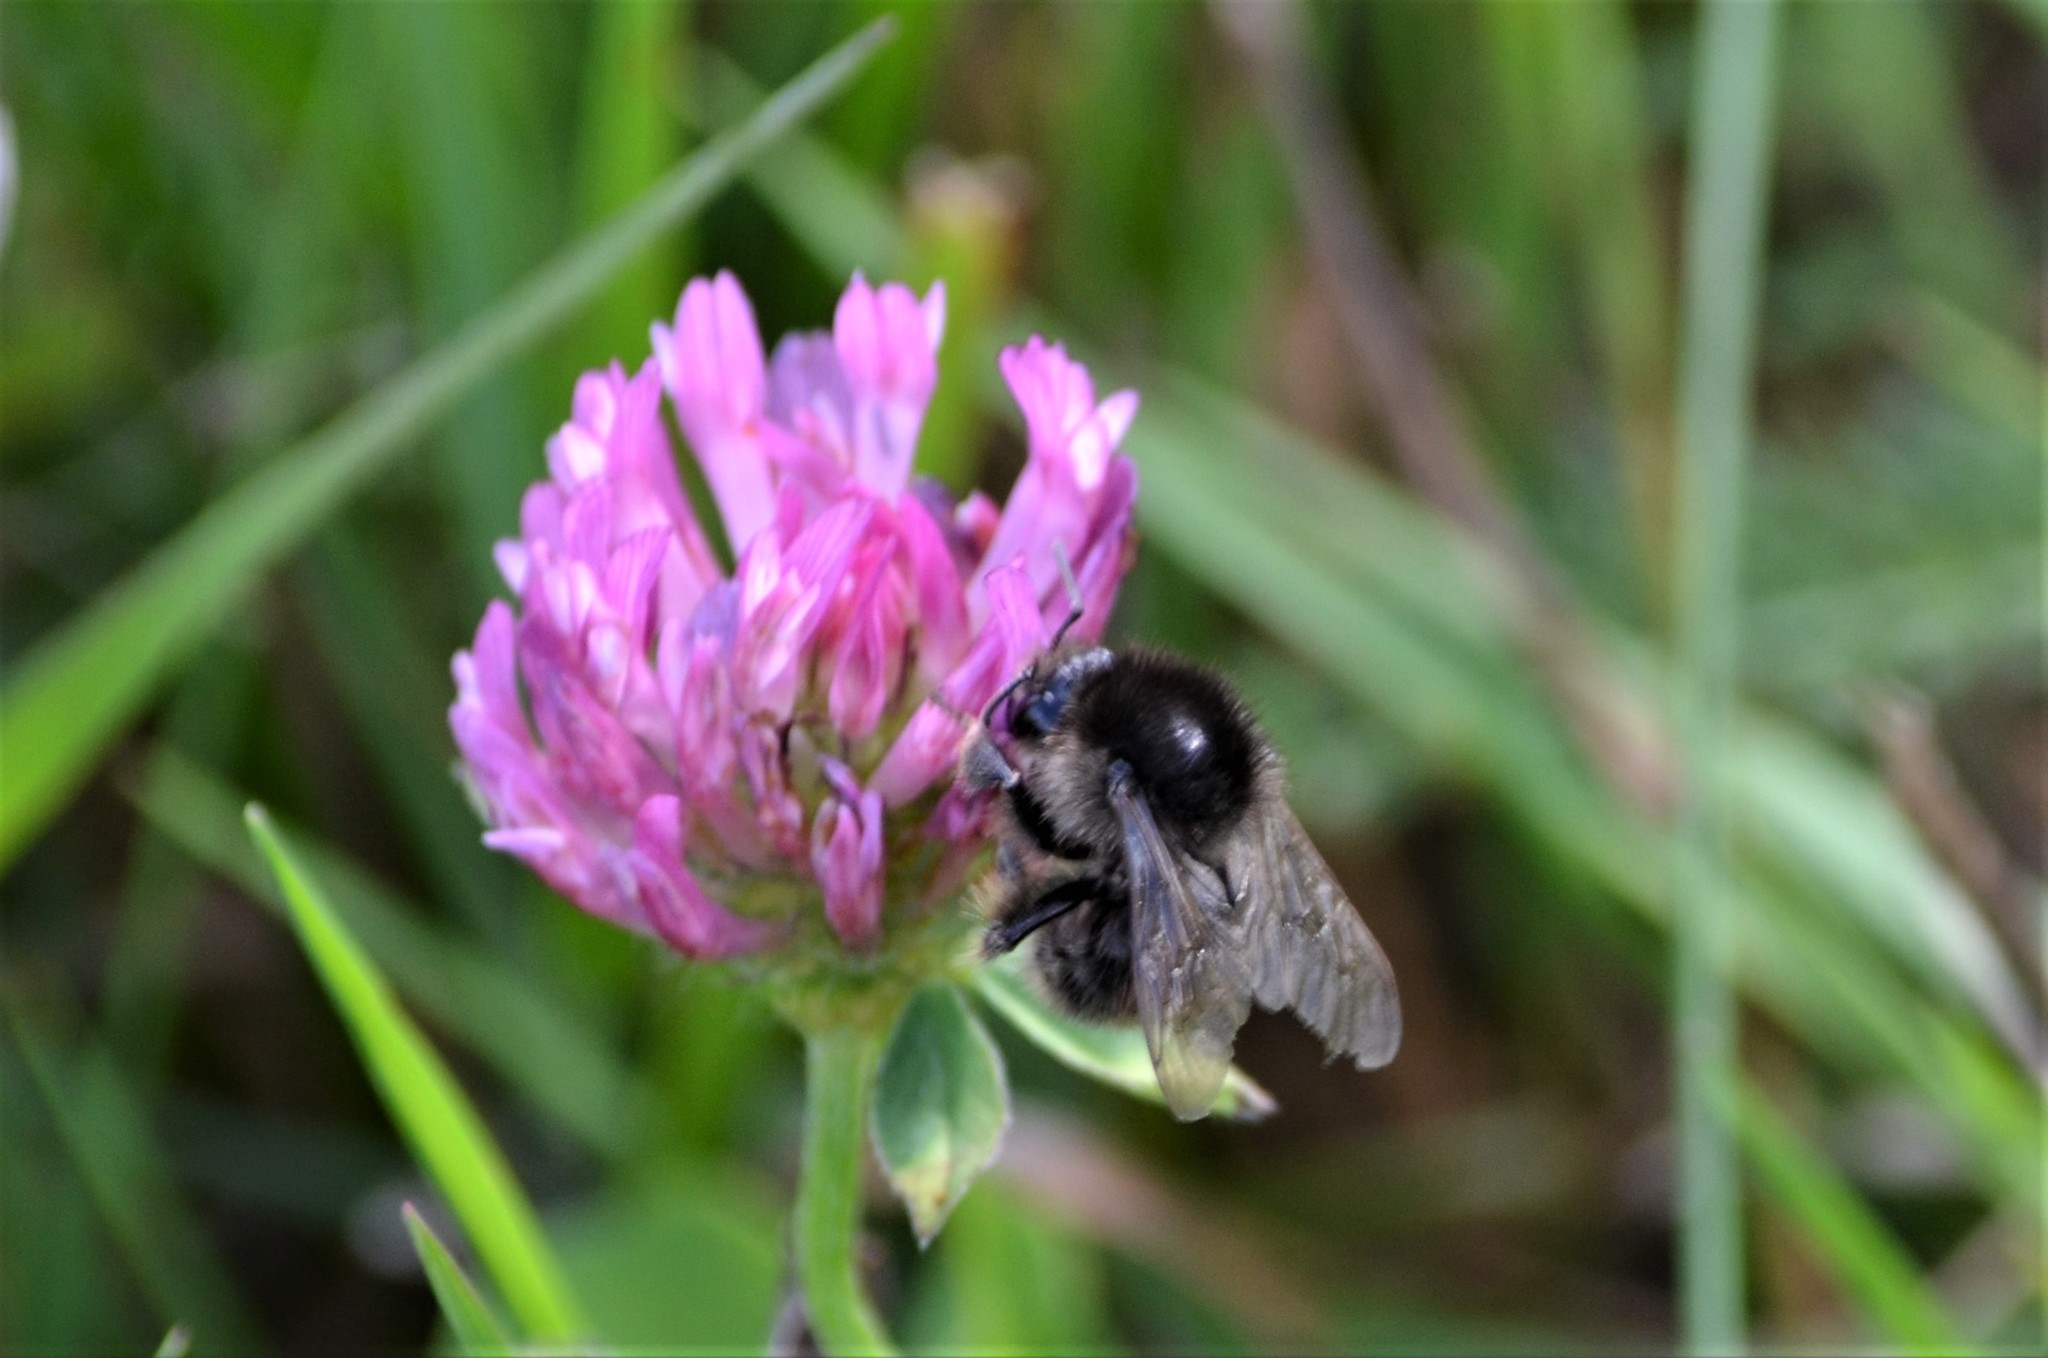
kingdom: Animalia
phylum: Arthropoda
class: Insecta
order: Hymenoptera
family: Apidae
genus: Bombus
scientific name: Bombus humilis
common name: Brown-banded carder-bee
